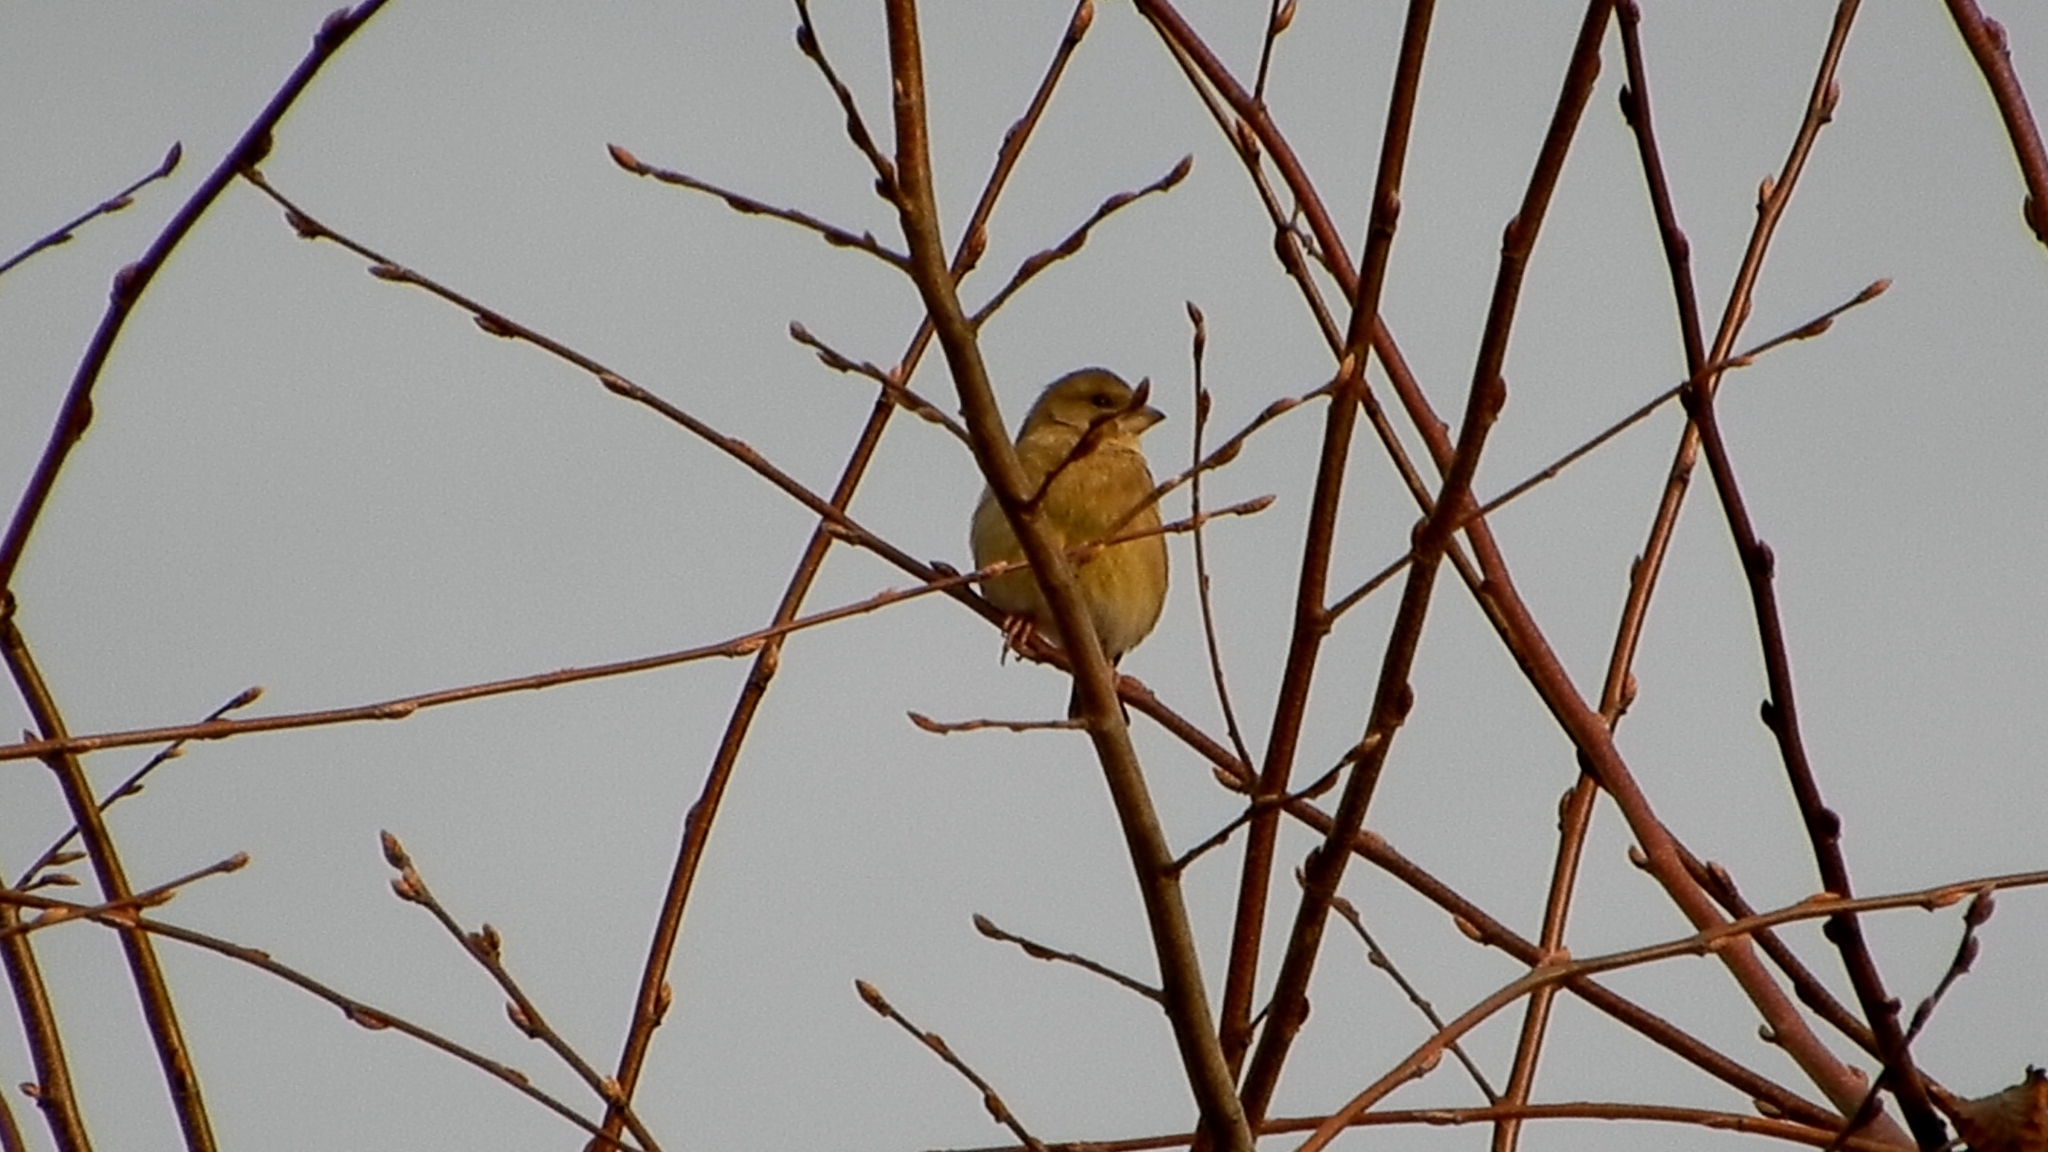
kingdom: Plantae
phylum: Tracheophyta
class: Liliopsida
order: Poales
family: Poaceae
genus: Chloris
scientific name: Chloris chloris
